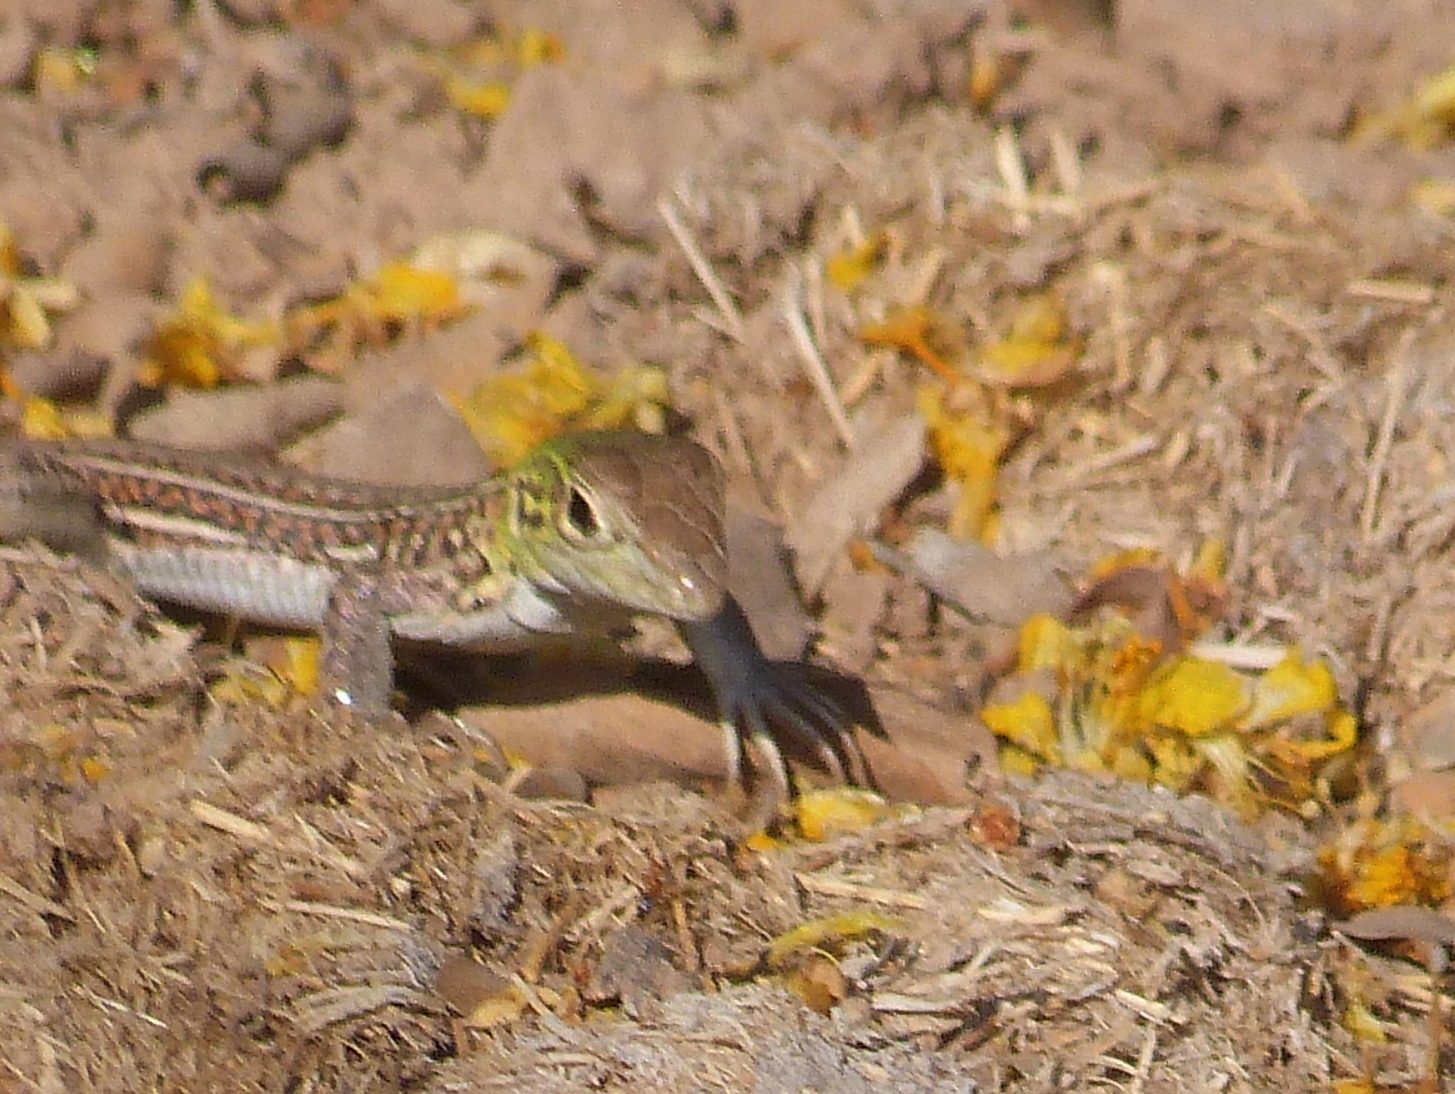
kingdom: Animalia
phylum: Chordata
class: Squamata
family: Teiidae
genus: Teius
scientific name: Teius teyou
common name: Four-toed tegu
